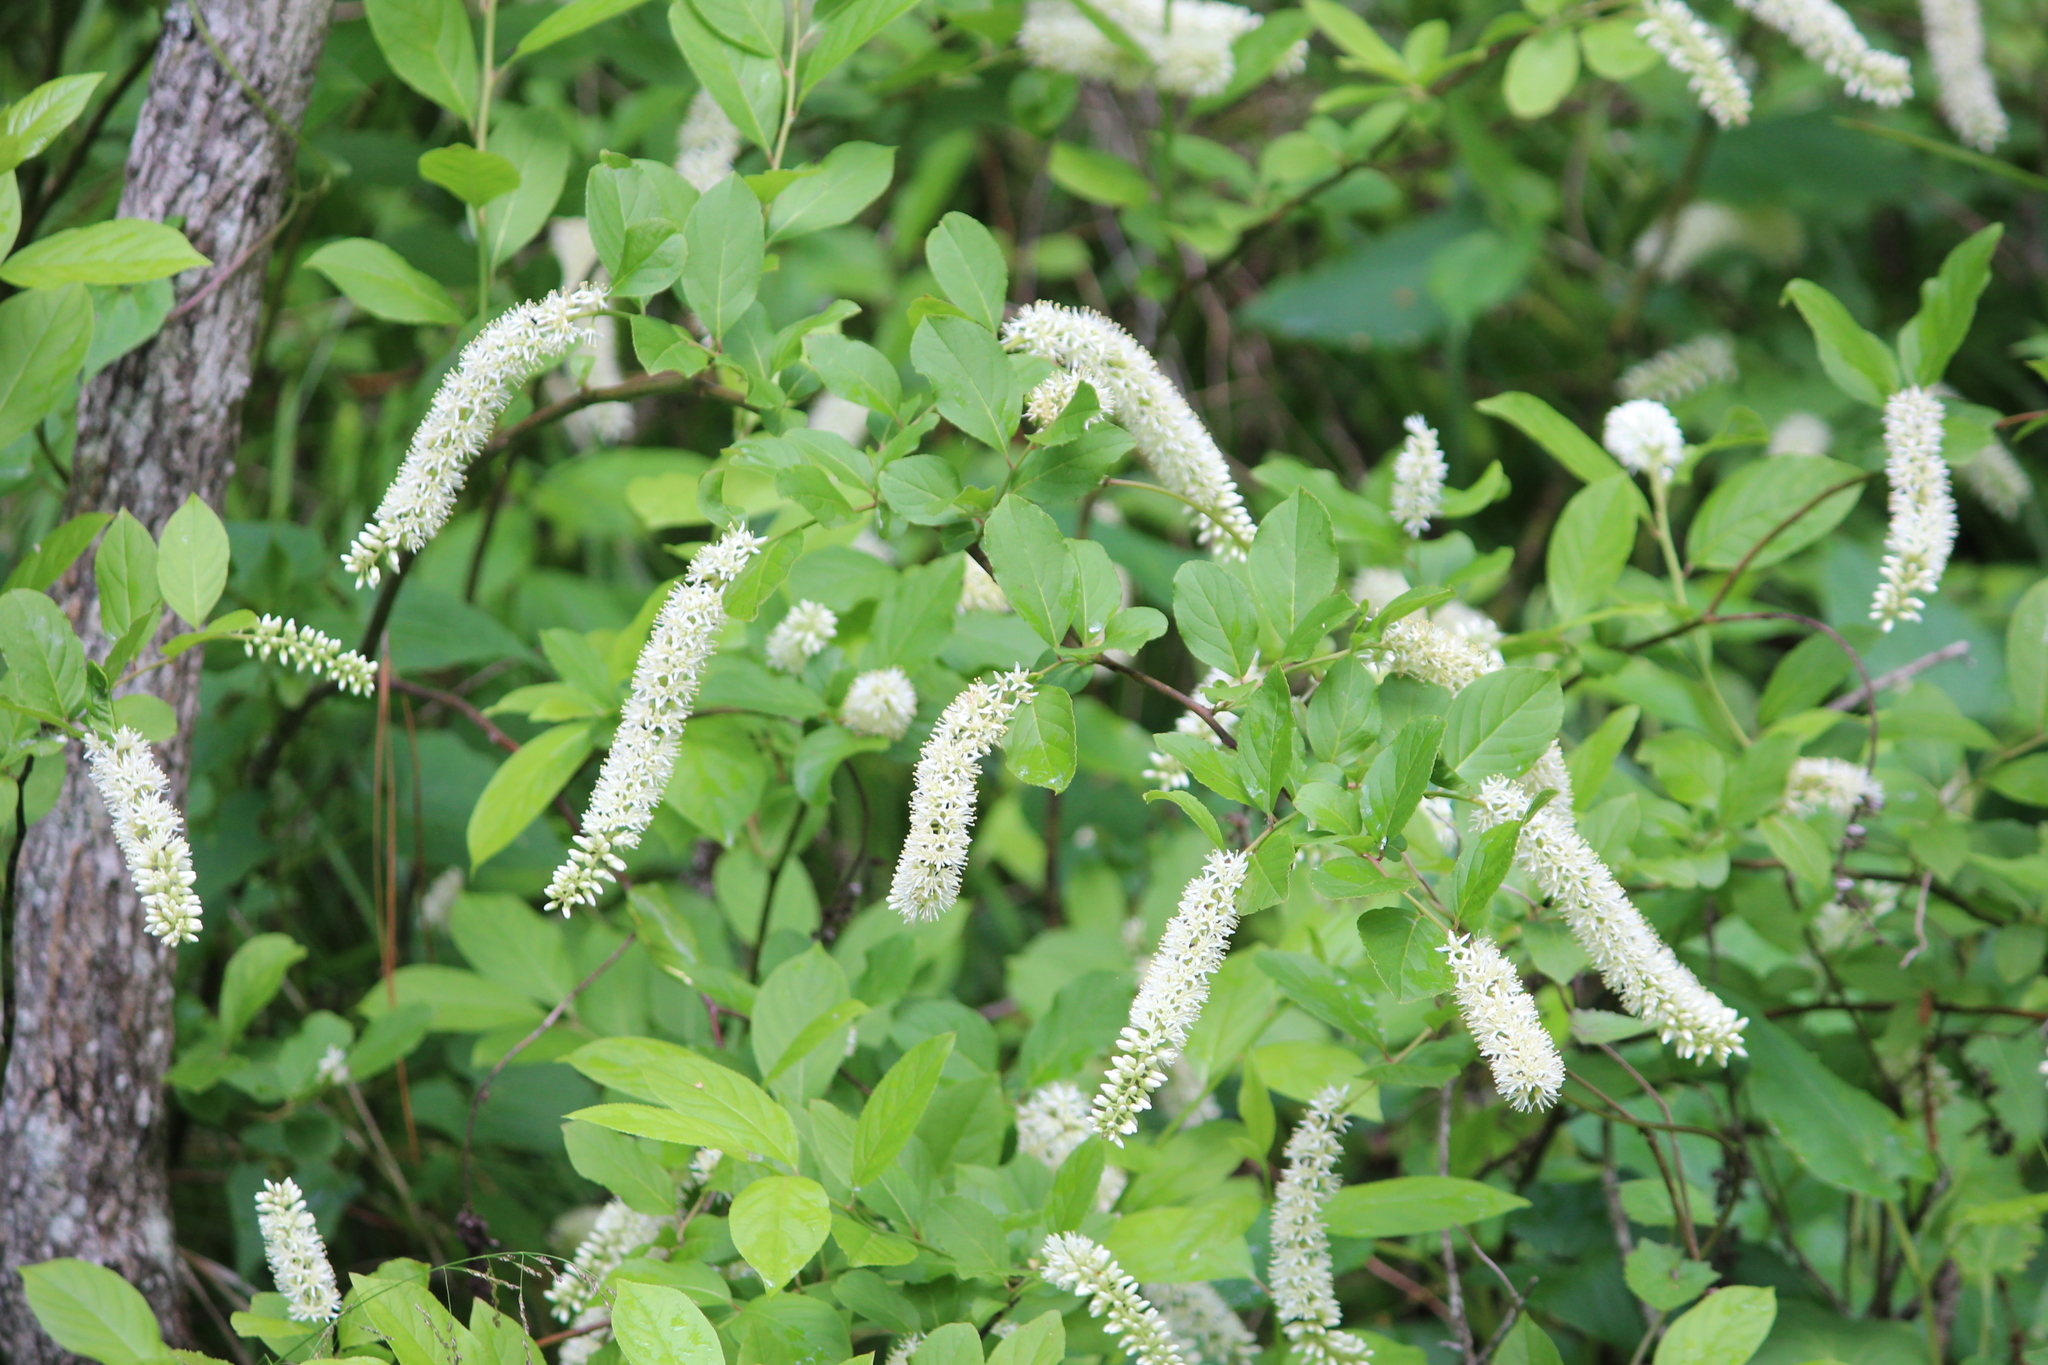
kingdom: Plantae
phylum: Tracheophyta
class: Magnoliopsida
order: Saxifragales
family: Iteaceae
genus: Itea
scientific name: Itea virginica
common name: Sweetspire
